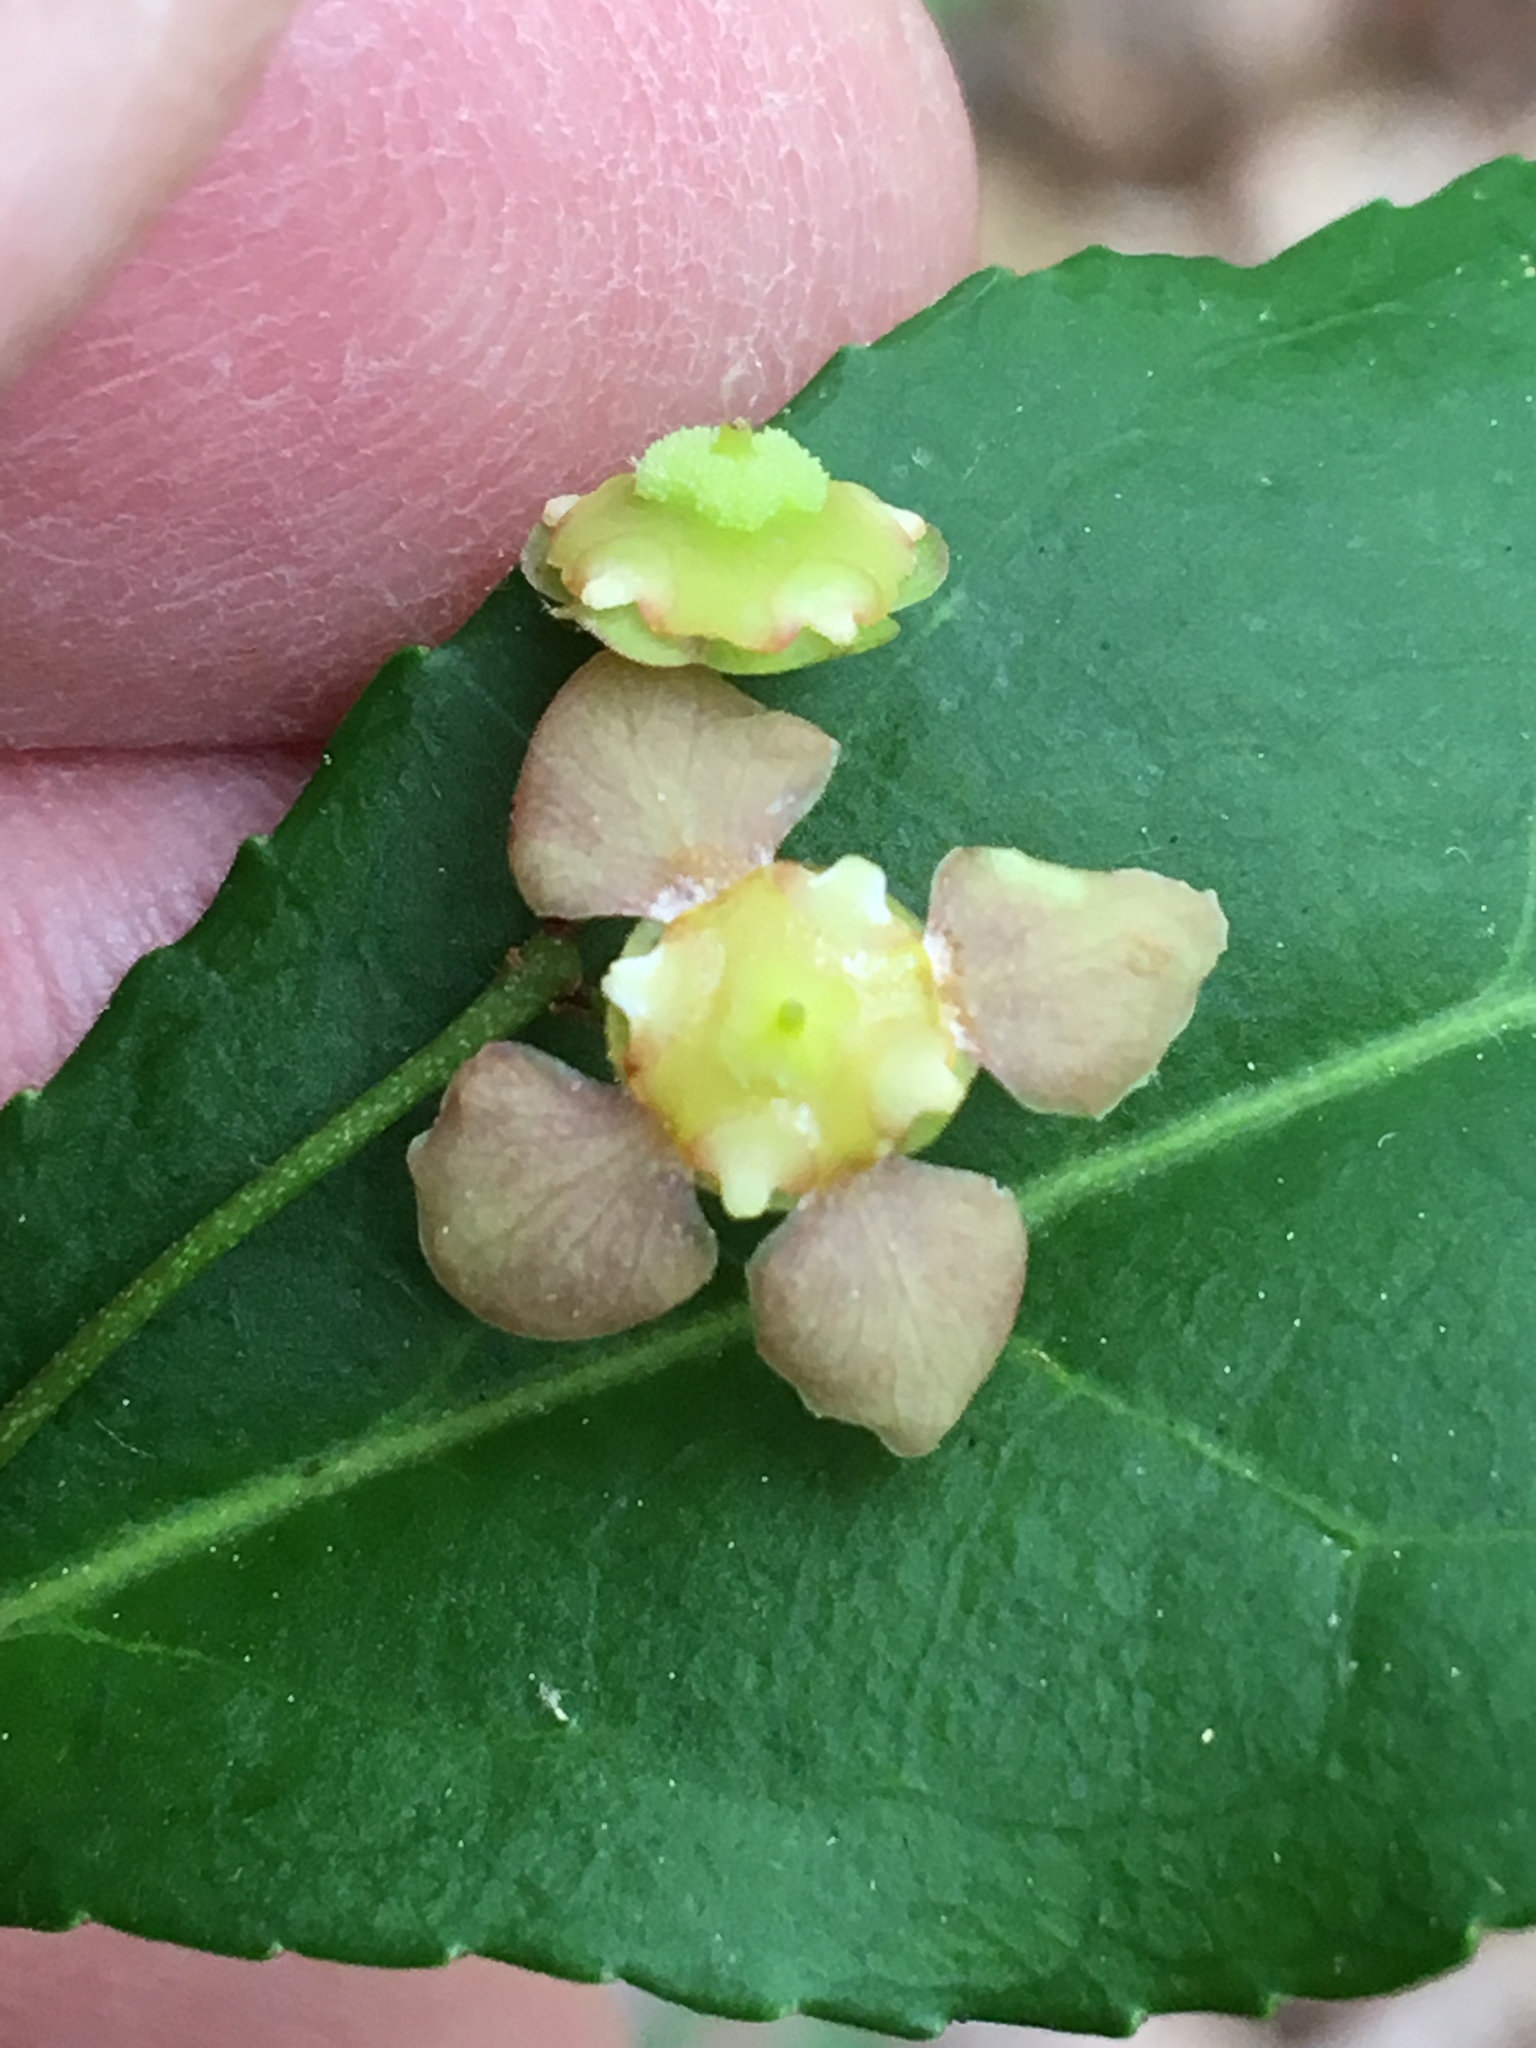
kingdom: Plantae
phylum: Tracheophyta
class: Magnoliopsida
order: Celastrales
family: Celastraceae
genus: Euonymus
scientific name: Euonymus americanus
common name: Bursting-heart
